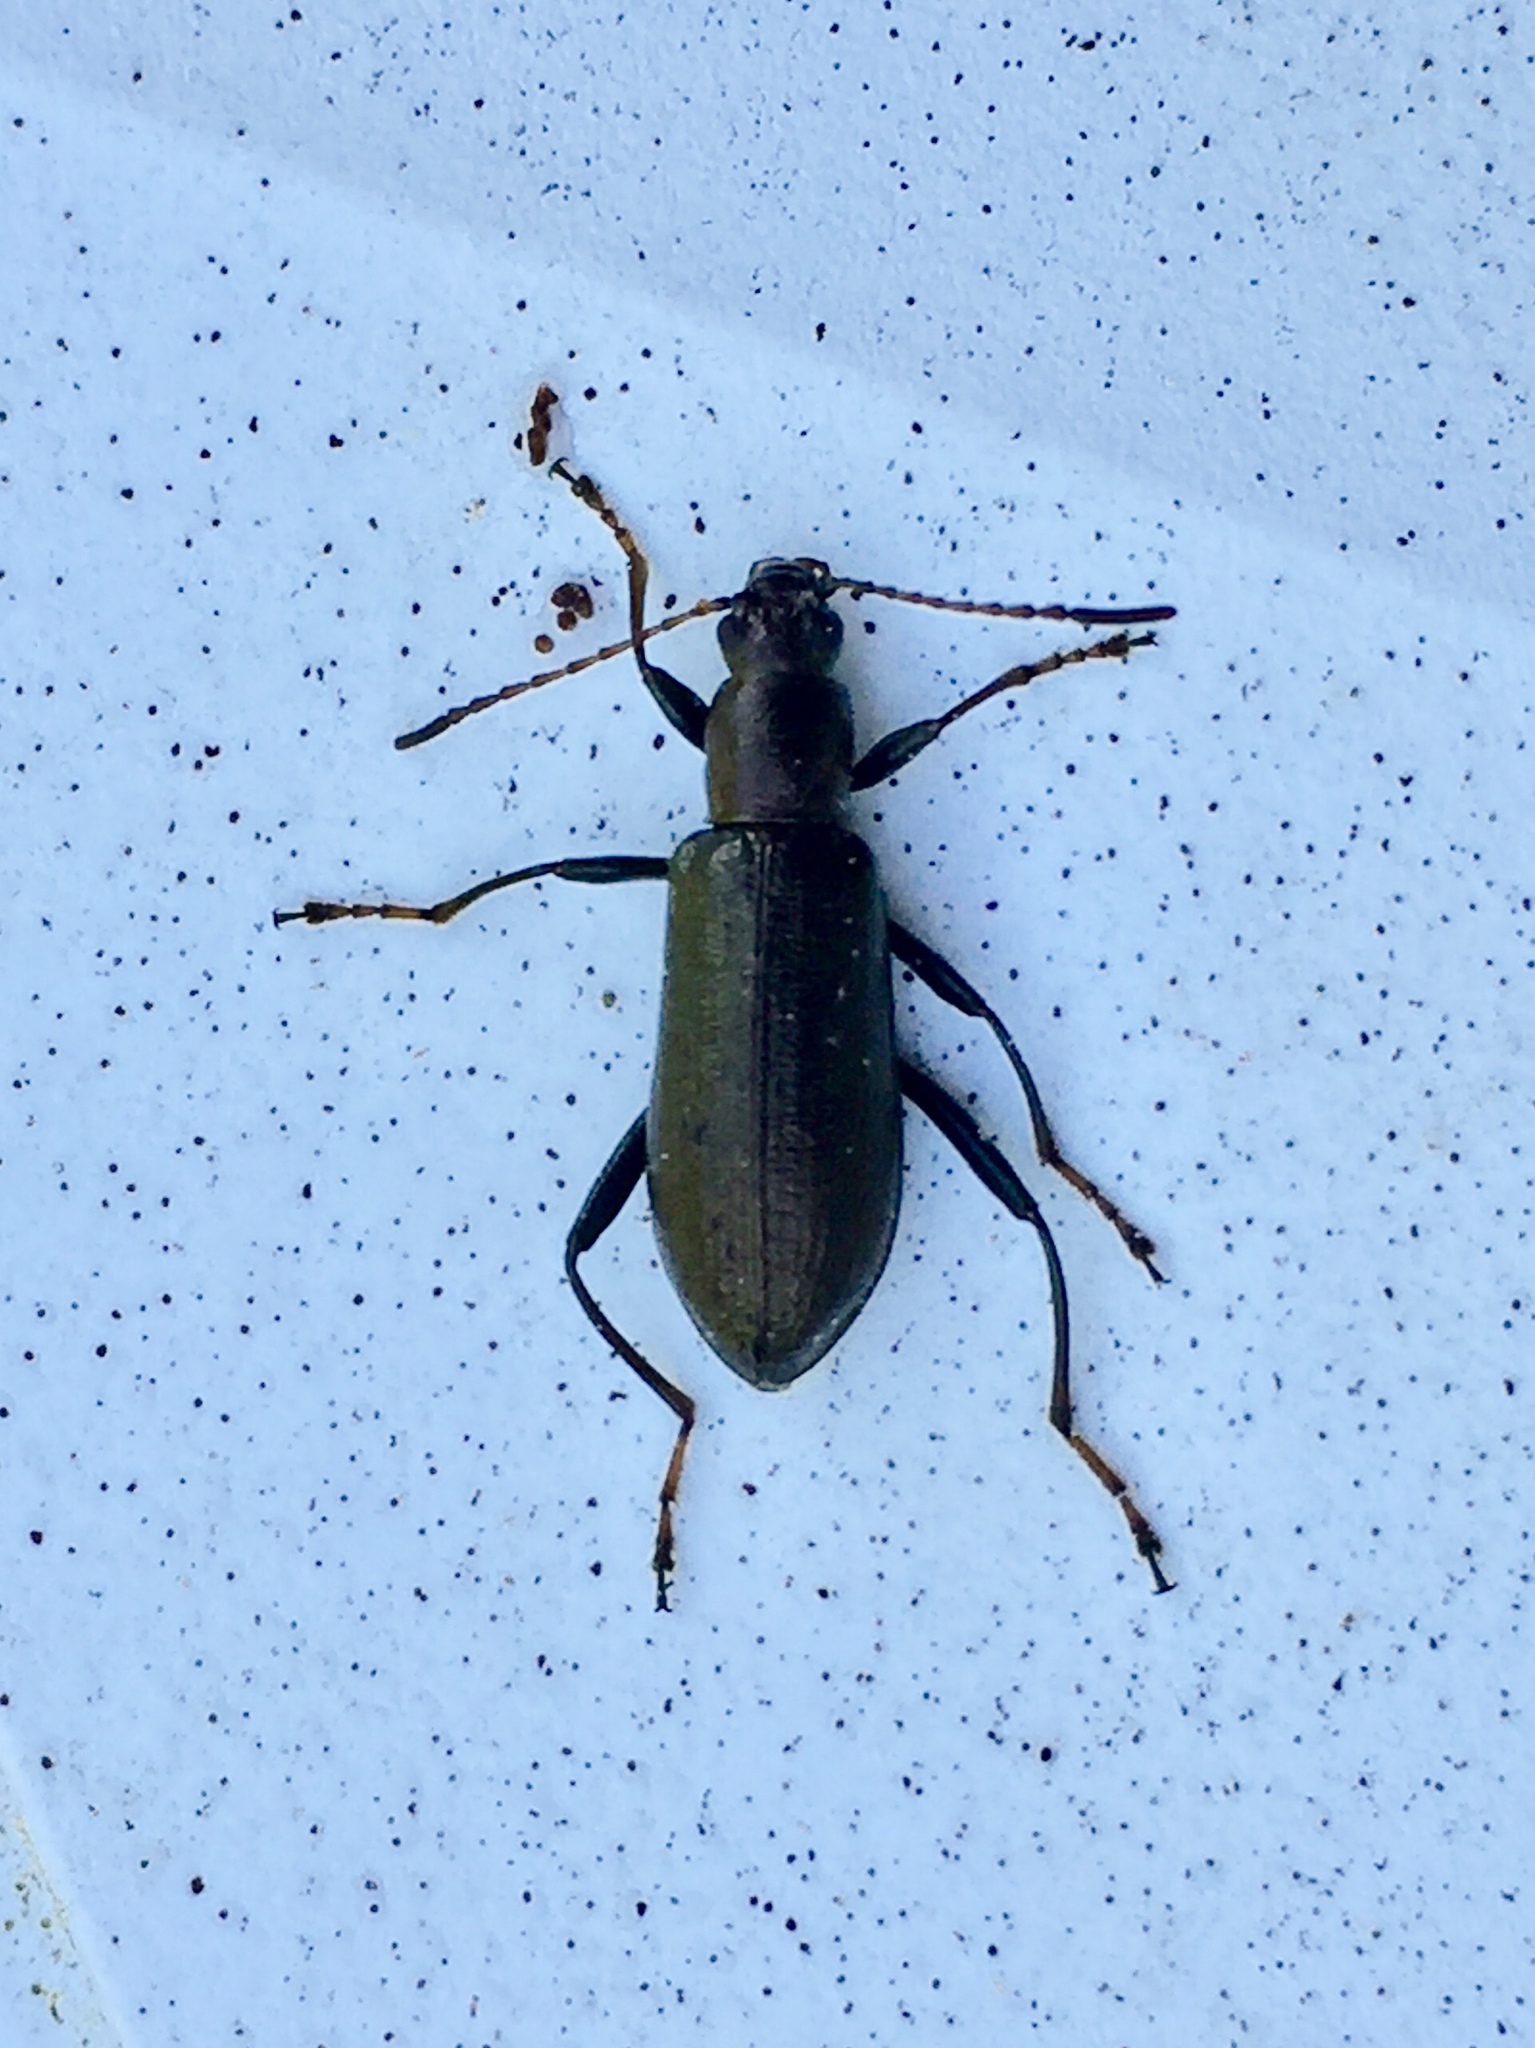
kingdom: Animalia
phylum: Arthropoda
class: Insecta
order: Coleoptera
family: Tenebrionidae
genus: Arthromacra
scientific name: Arthromacra aenea
